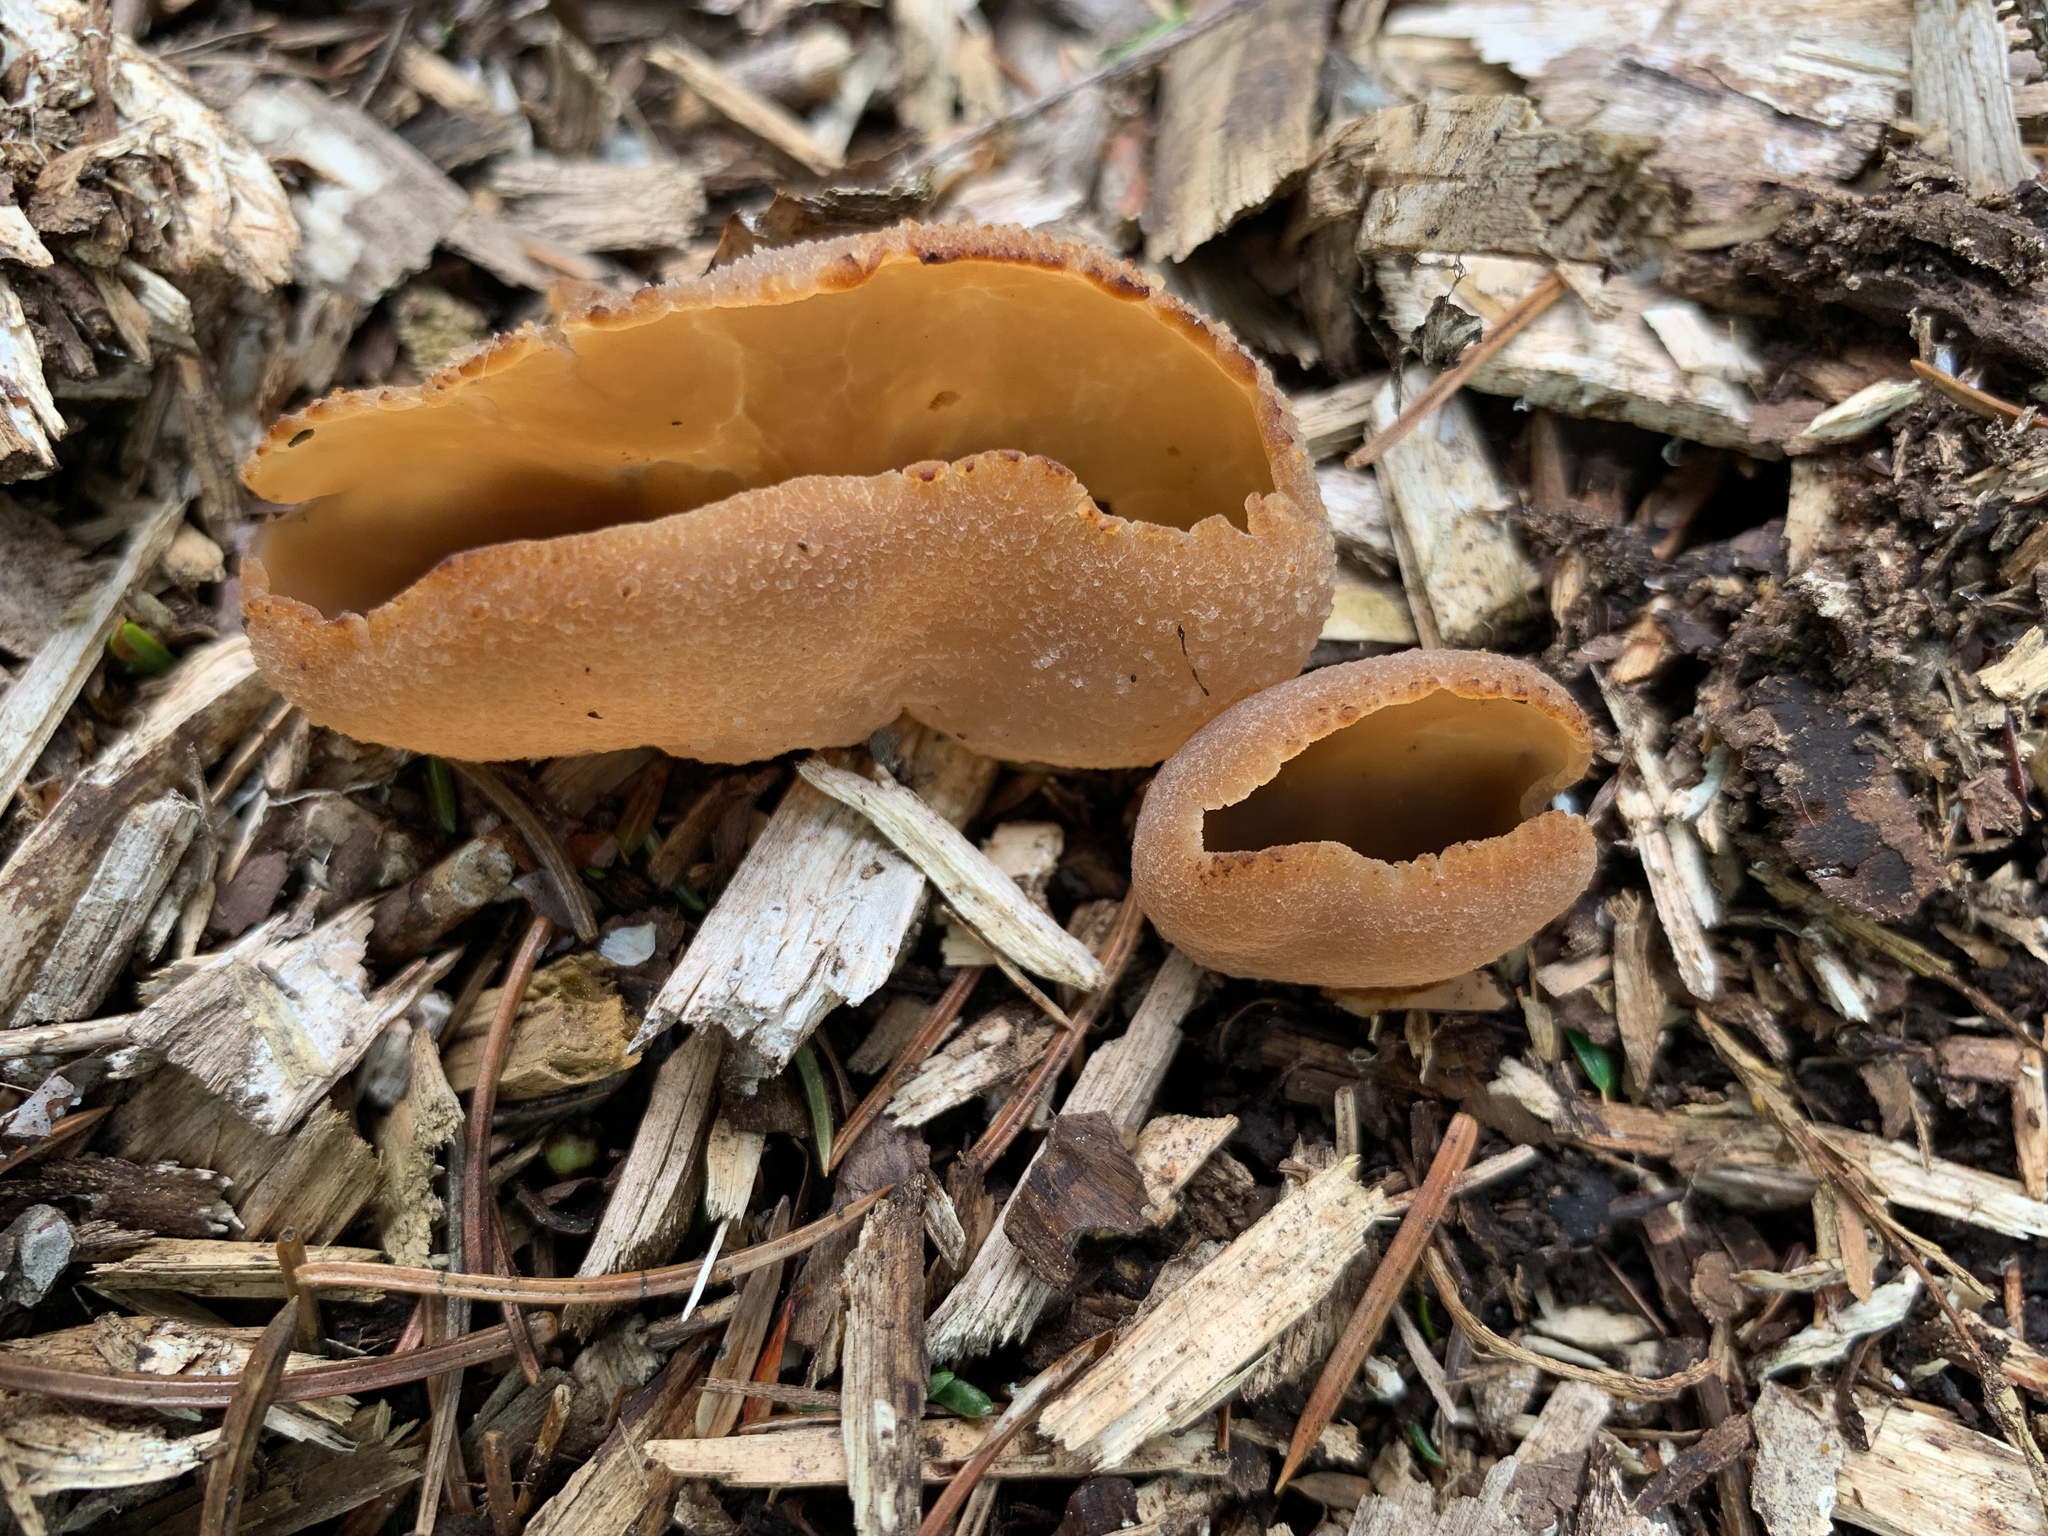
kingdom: Fungi
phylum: Ascomycota
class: Pezizomycetes
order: Pezizales
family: Pezizaceae
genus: Peziza
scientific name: Peziza varia
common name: Layered cup
